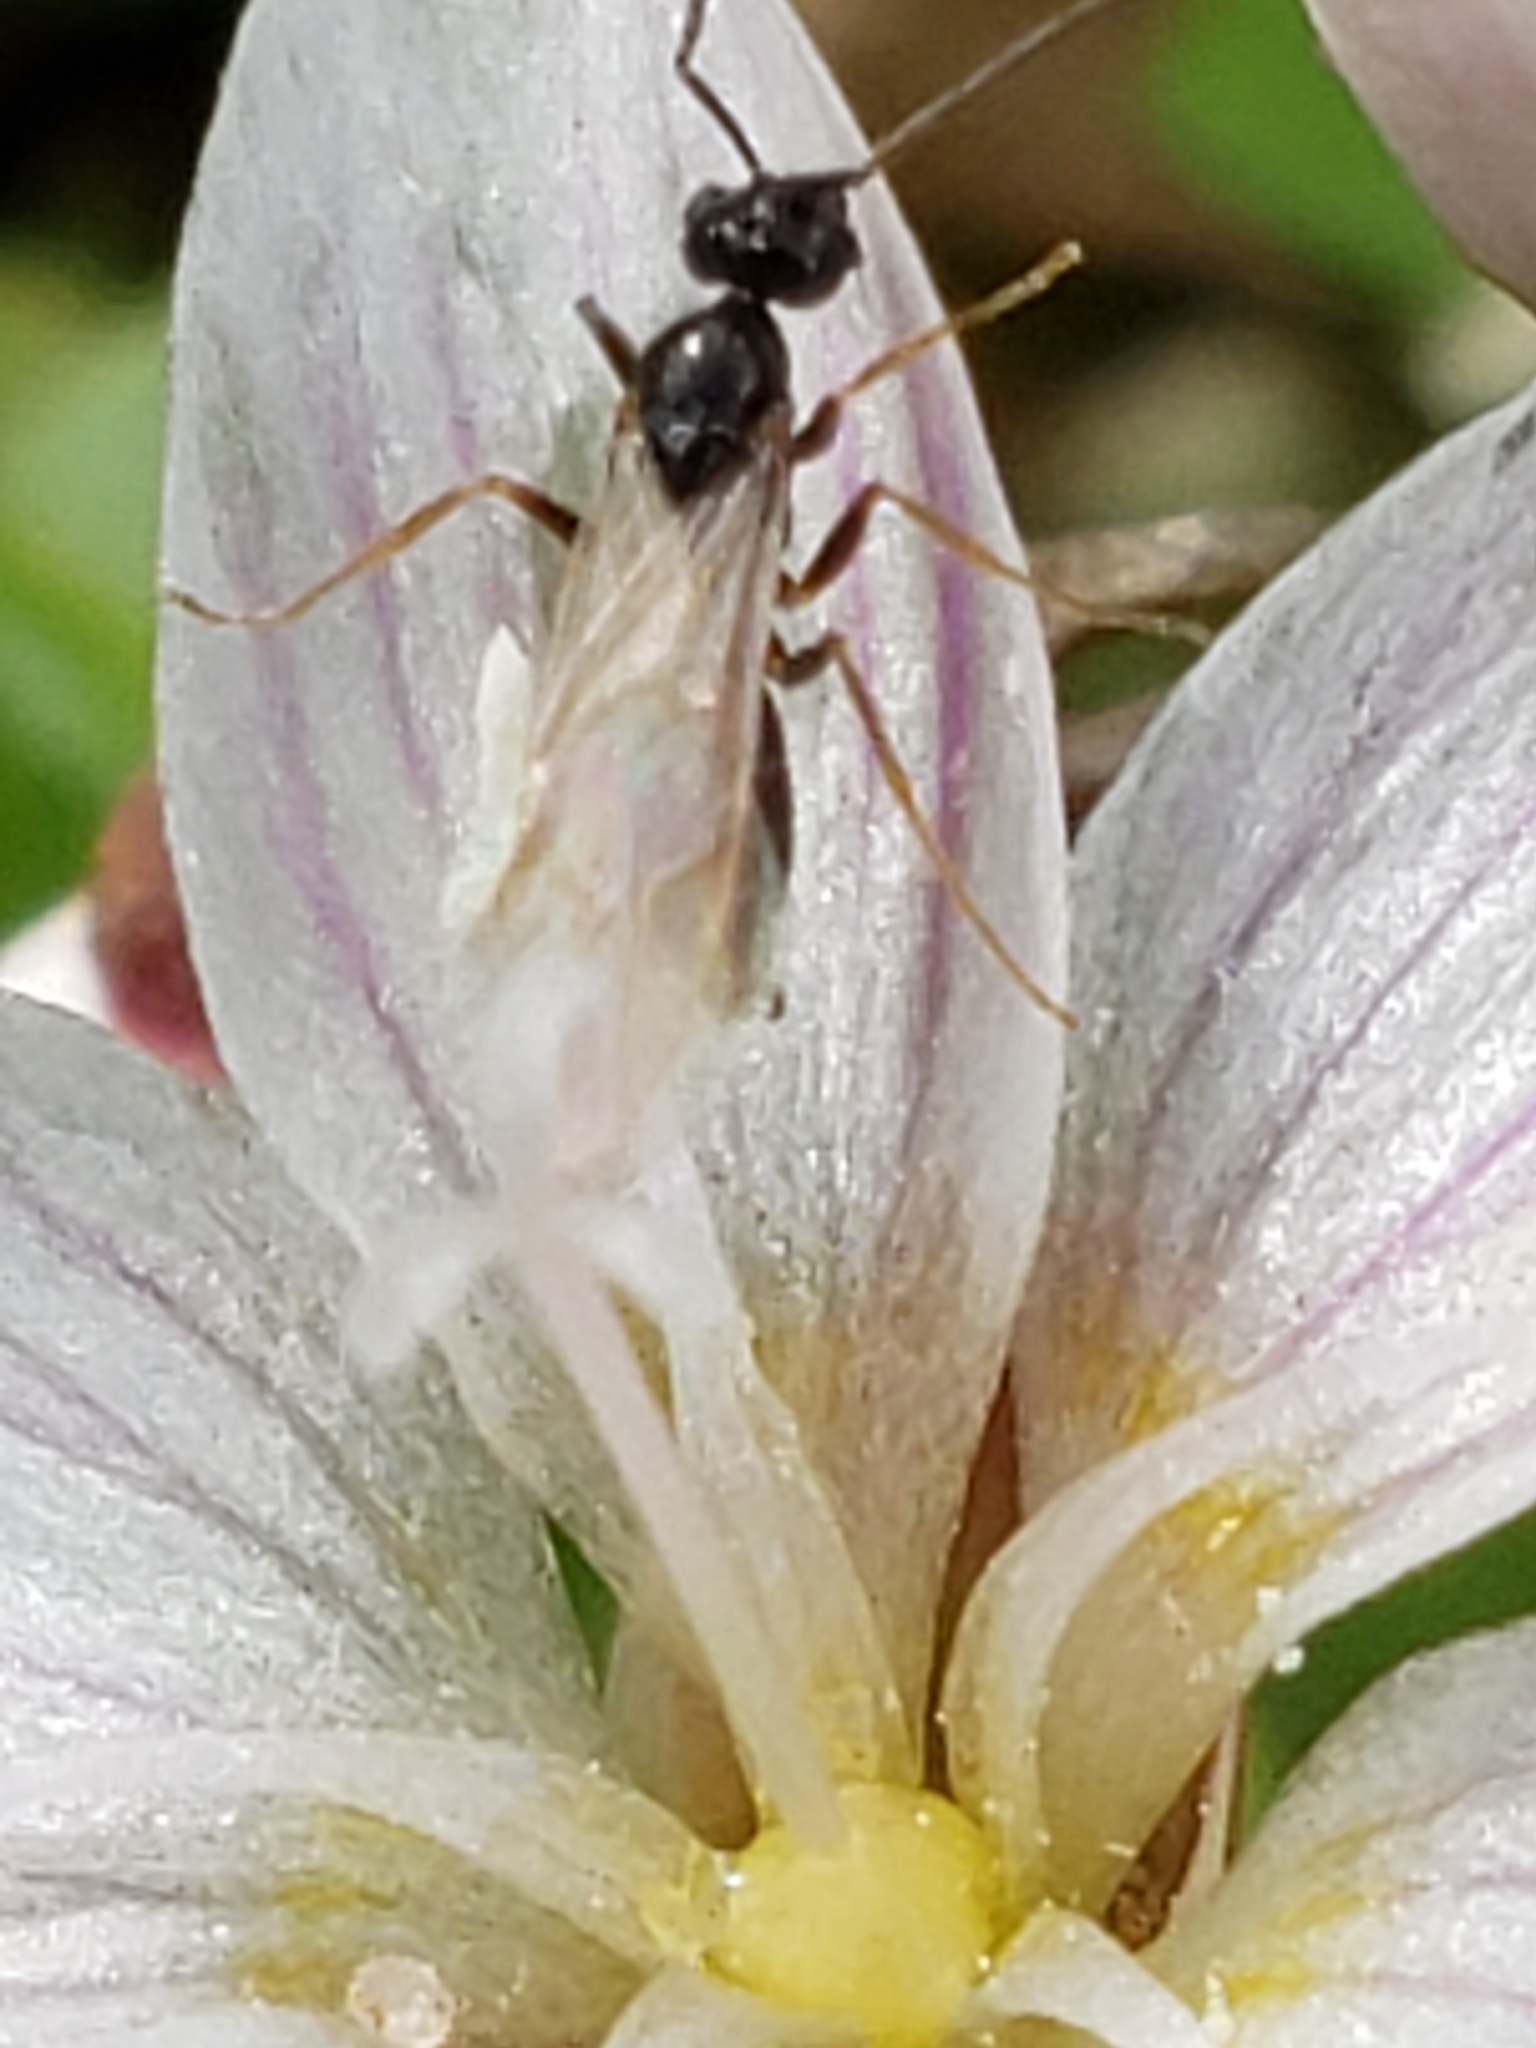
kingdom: Animalia
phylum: Arthropoda
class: Insecta
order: Hymenoptera
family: Formicidae
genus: Prenolepis
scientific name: Prenolepis imparis
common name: Small honey ant
